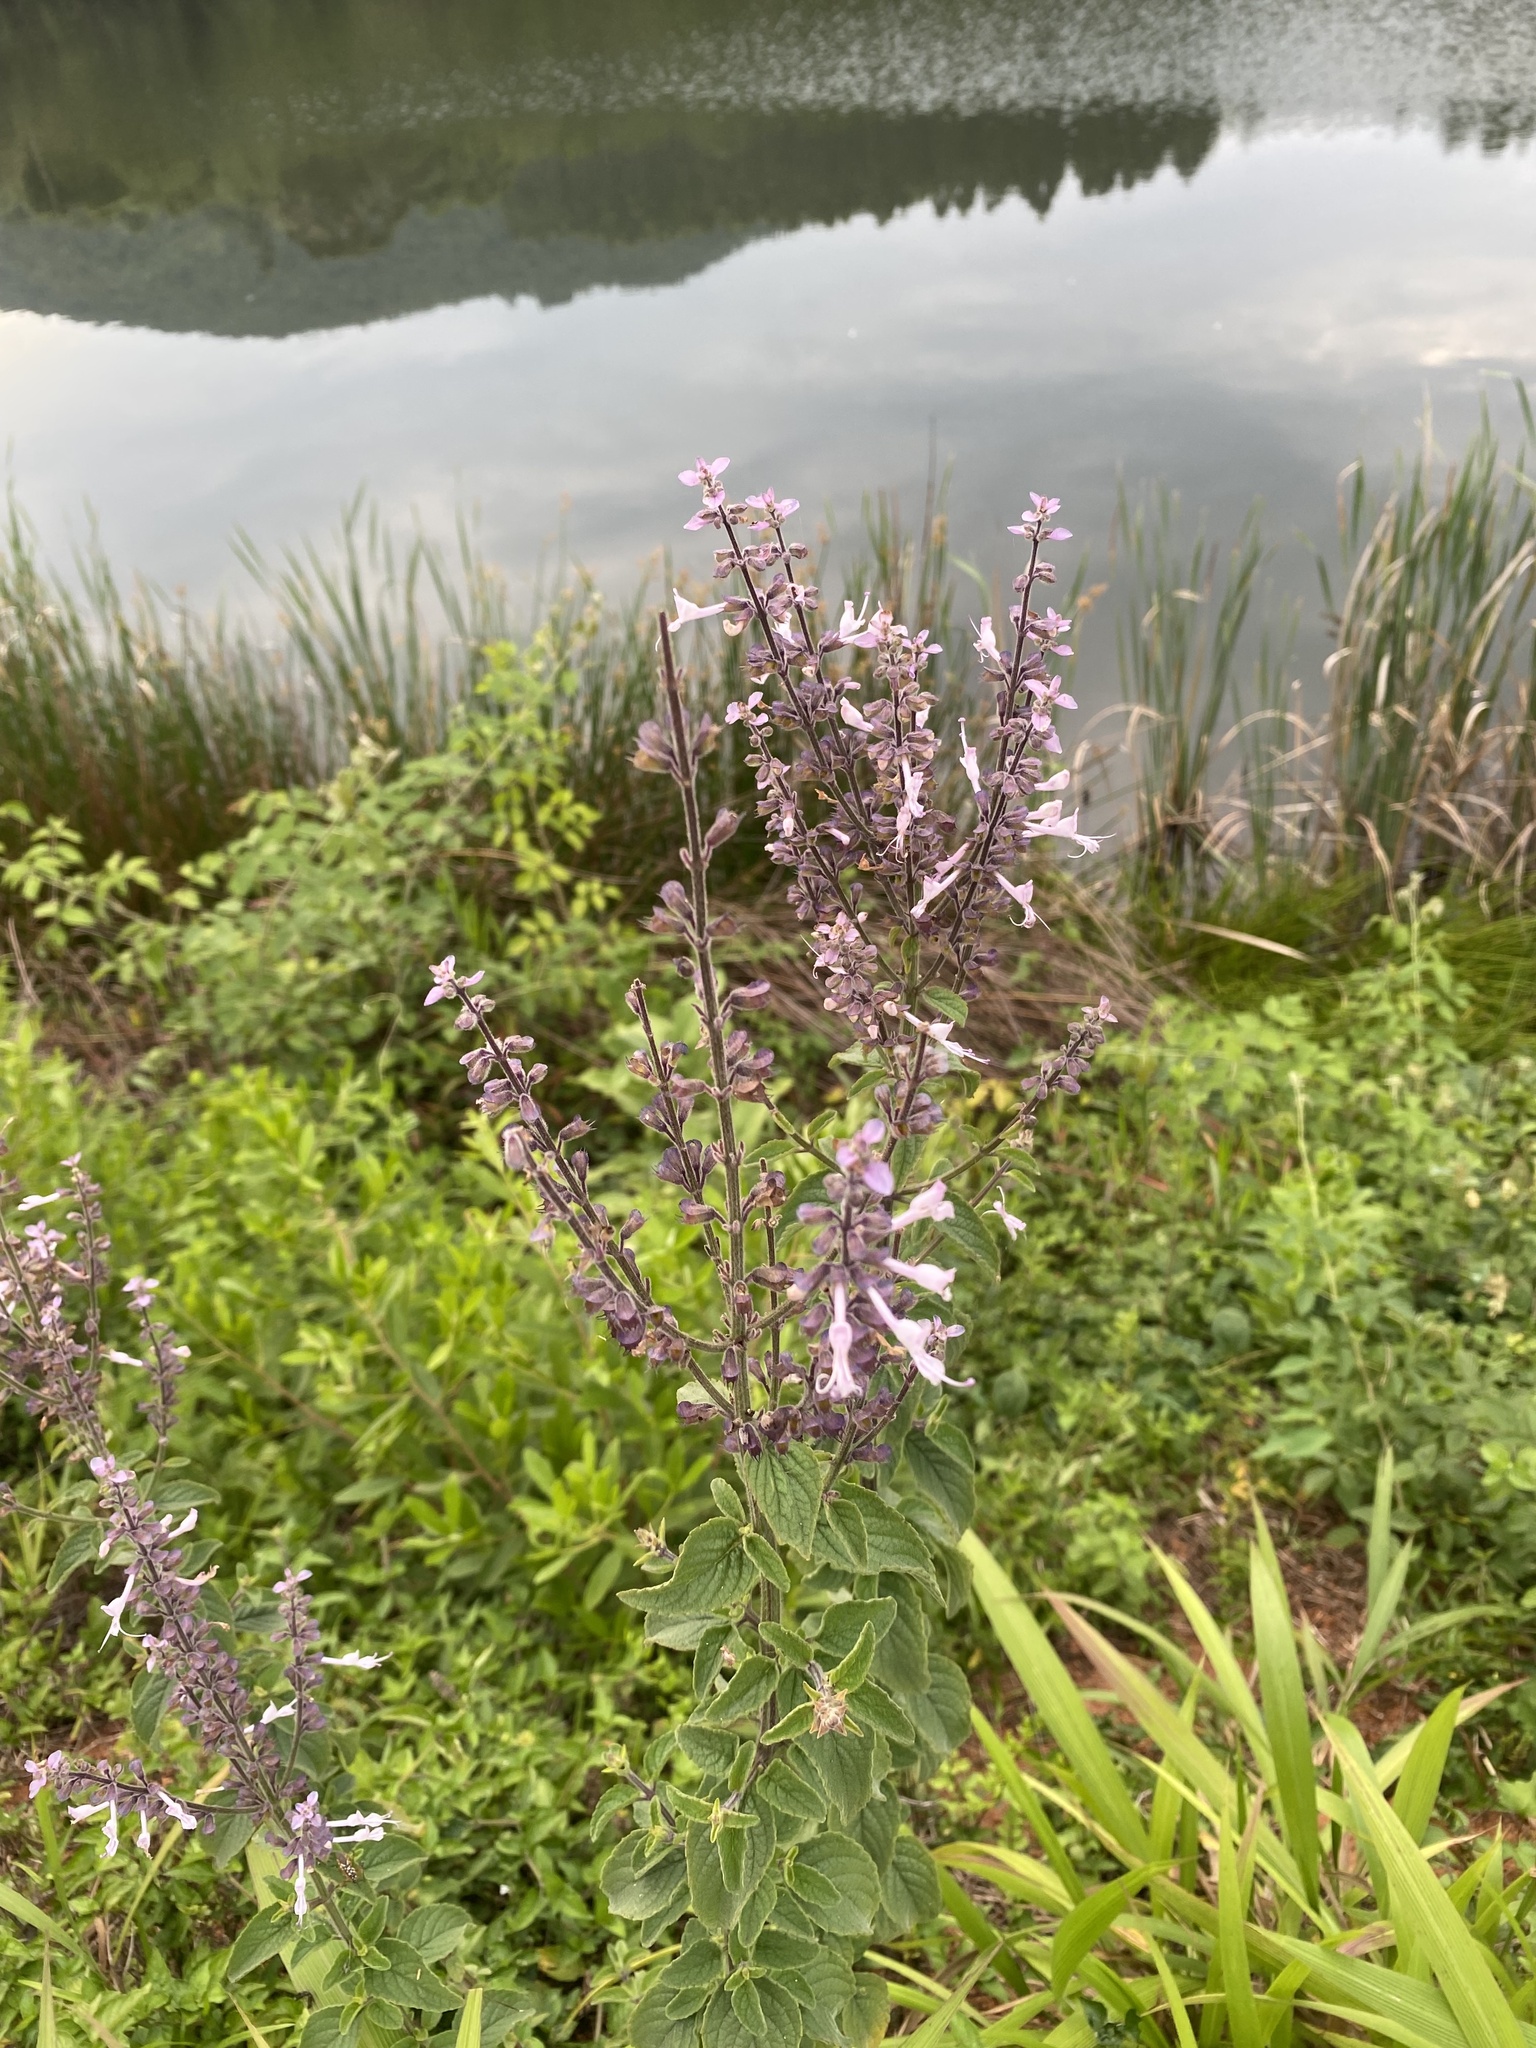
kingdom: Plantae
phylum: Tracheophyta
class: Magnoliopsida
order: Lamiales
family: Lamiaceae
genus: Syncolostemon
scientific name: Syncolostemon rehmannii
